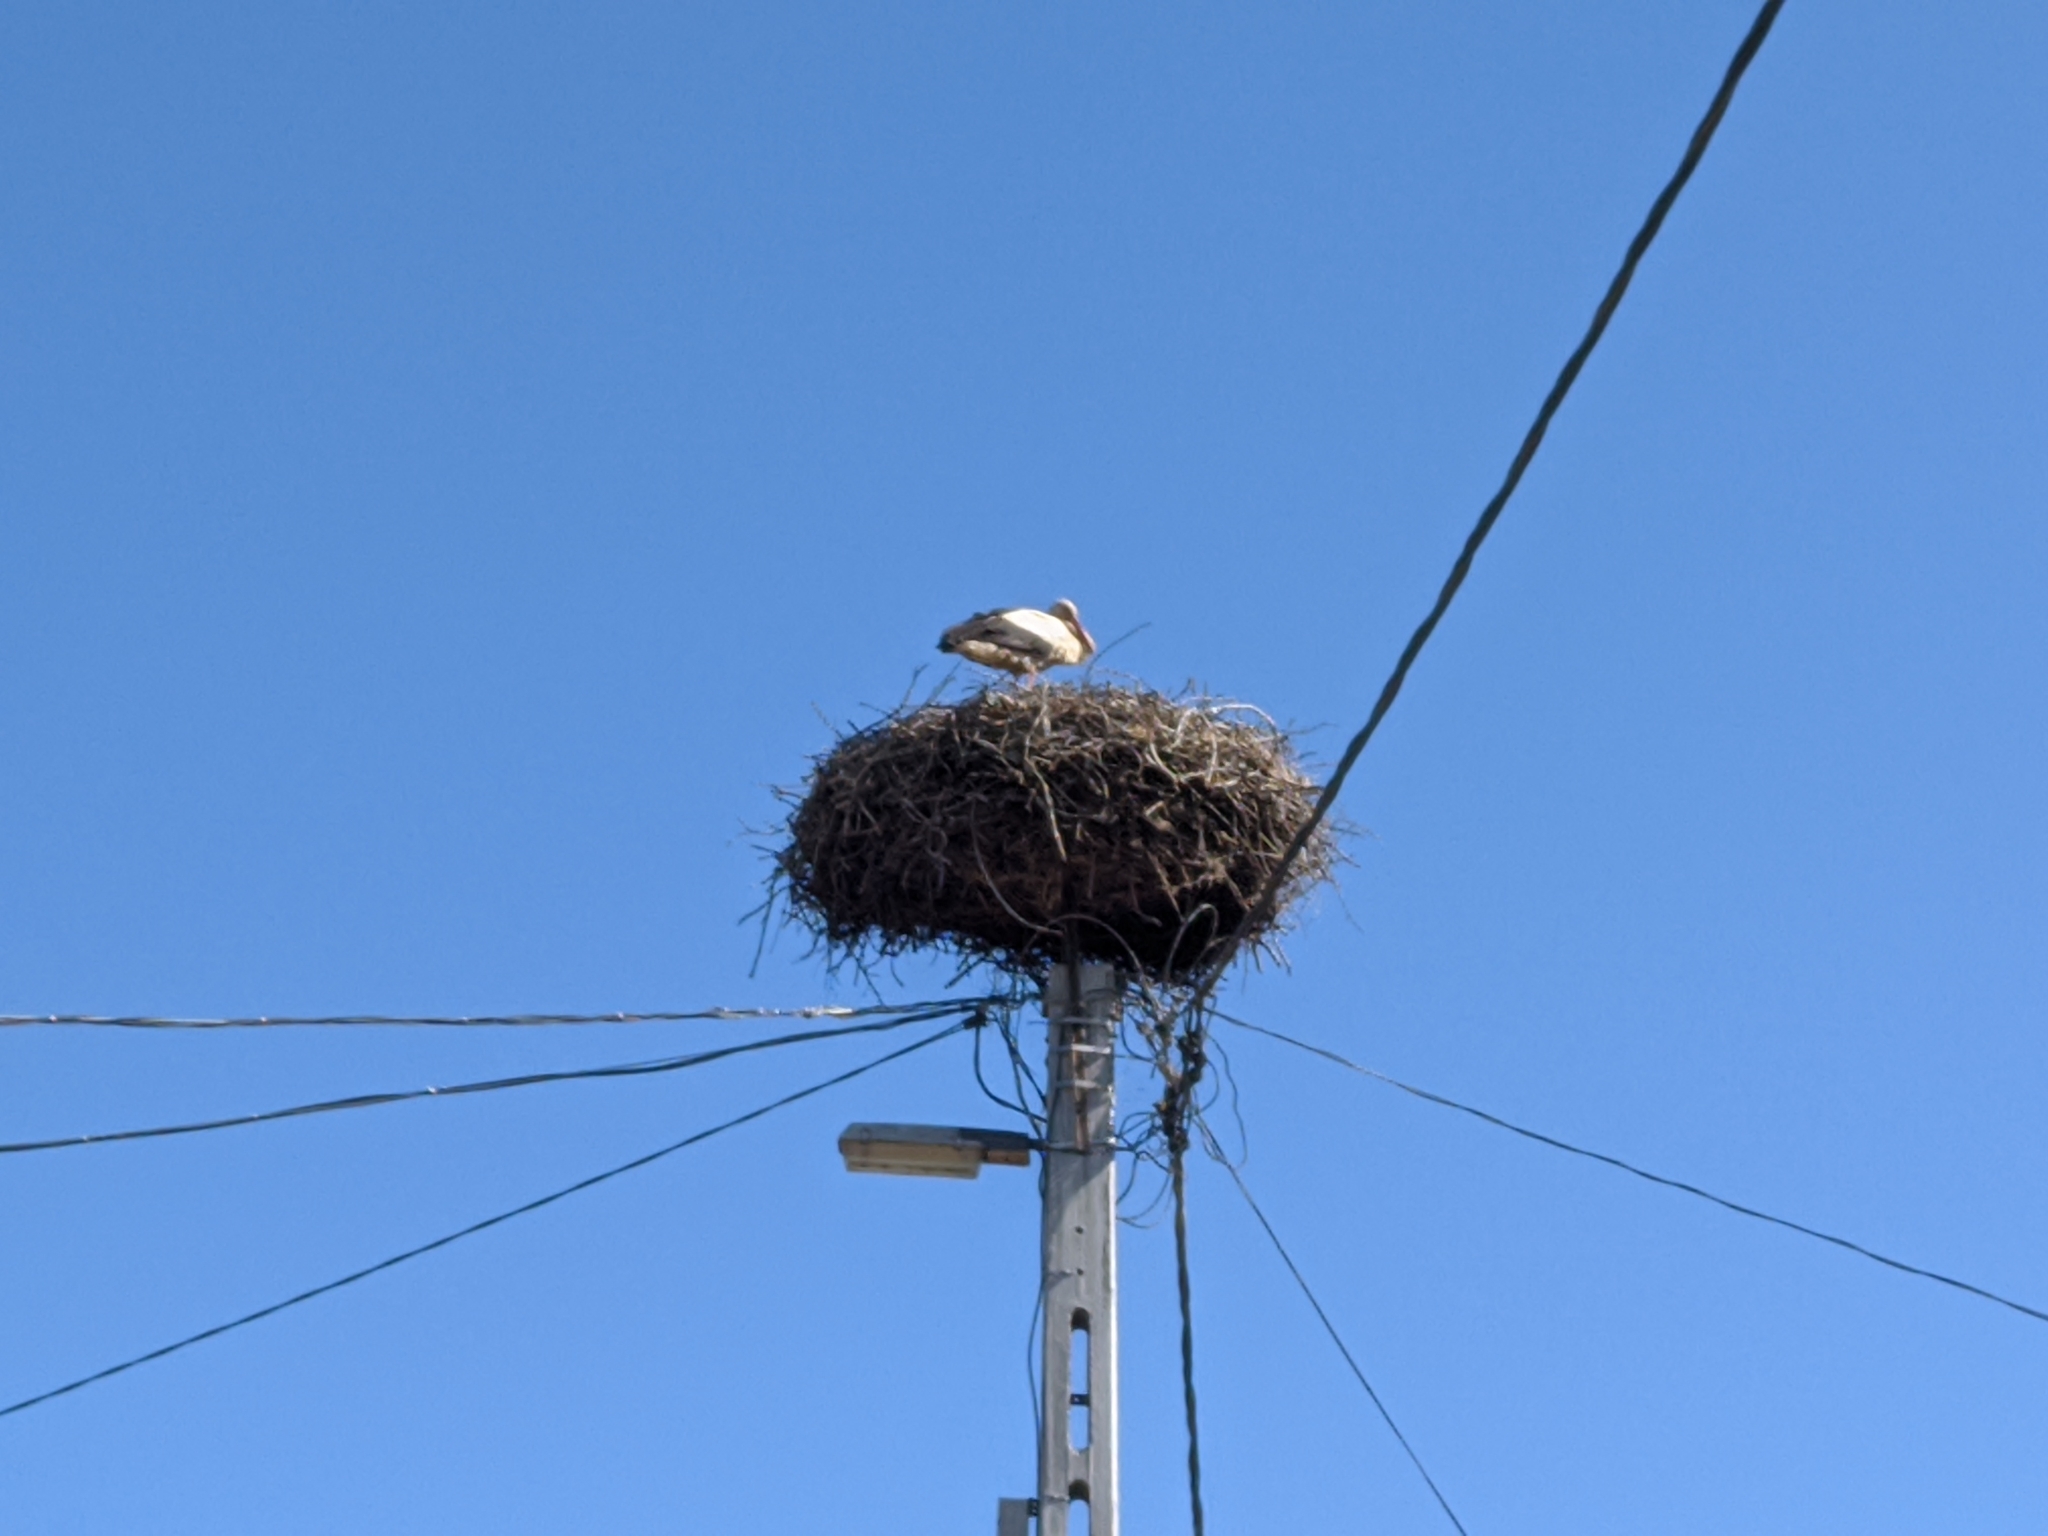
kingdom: Animalia
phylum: Chordata
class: Aves
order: Ciconiiformes
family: Ciconiidae
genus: Ciconia
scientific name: Ciconia ciconia
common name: White stork
